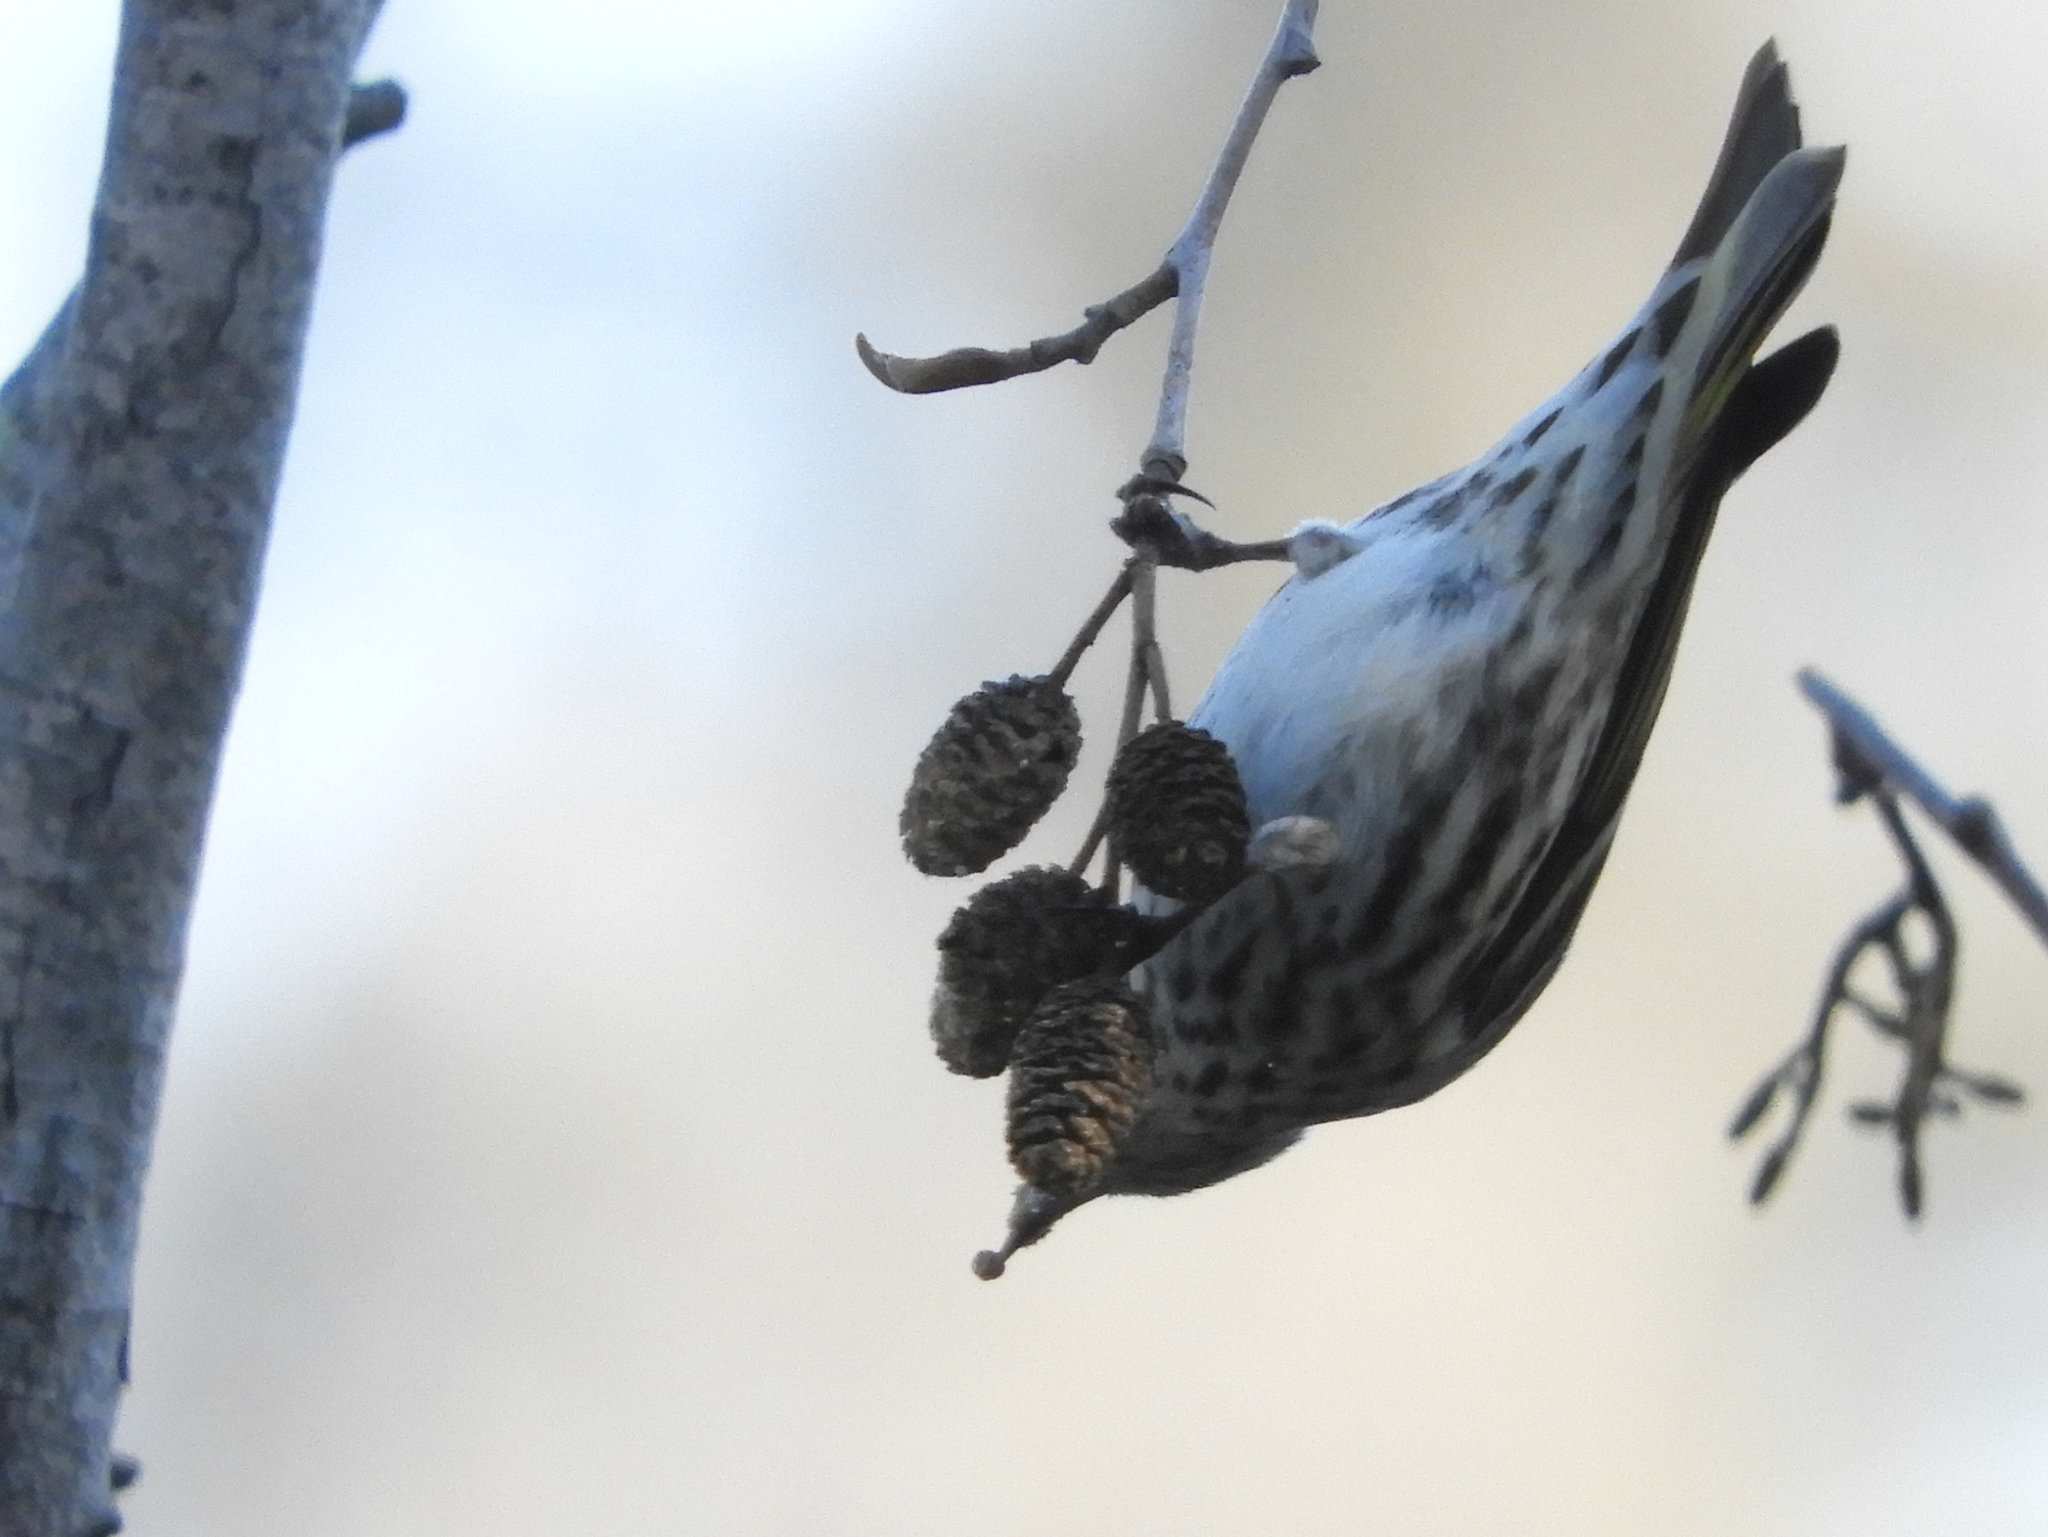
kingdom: Animalia
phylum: Chordata
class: Aves
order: Passeriformes
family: Fringillidae
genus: Spinus
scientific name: Spinus psaltria
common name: Lesser goldfinch
